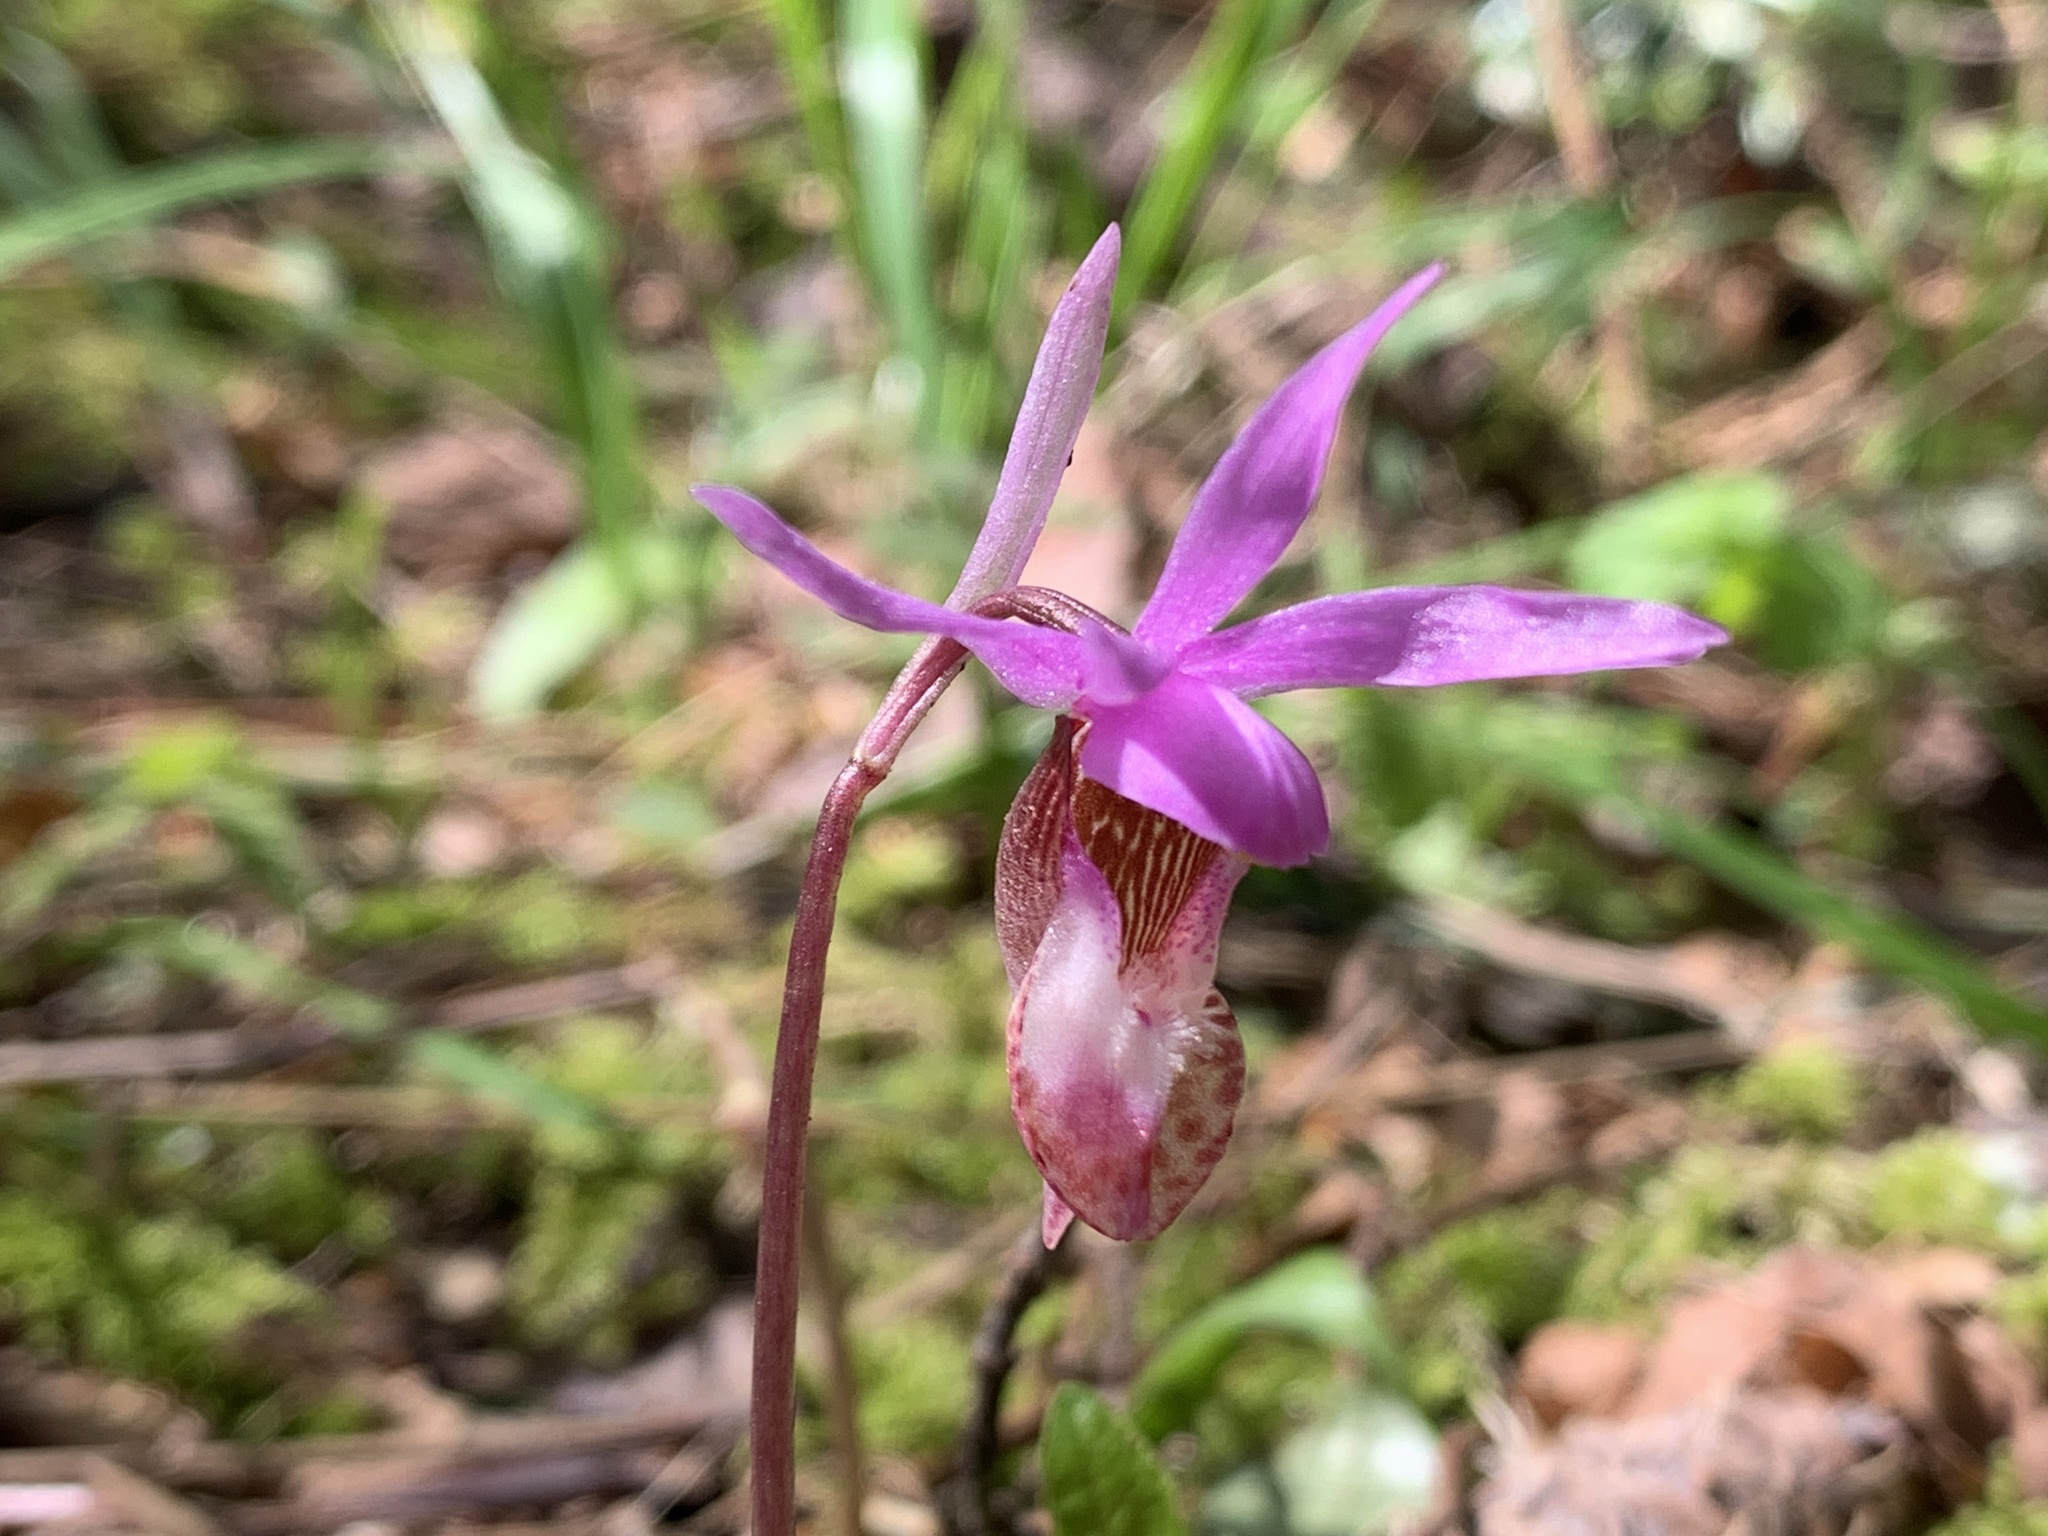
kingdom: Plantae
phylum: Tracheophyta
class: Liliopsida
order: Asparagales
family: Orchidaceae
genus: Calypso
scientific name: Calypso bulbosa
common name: Calypso
